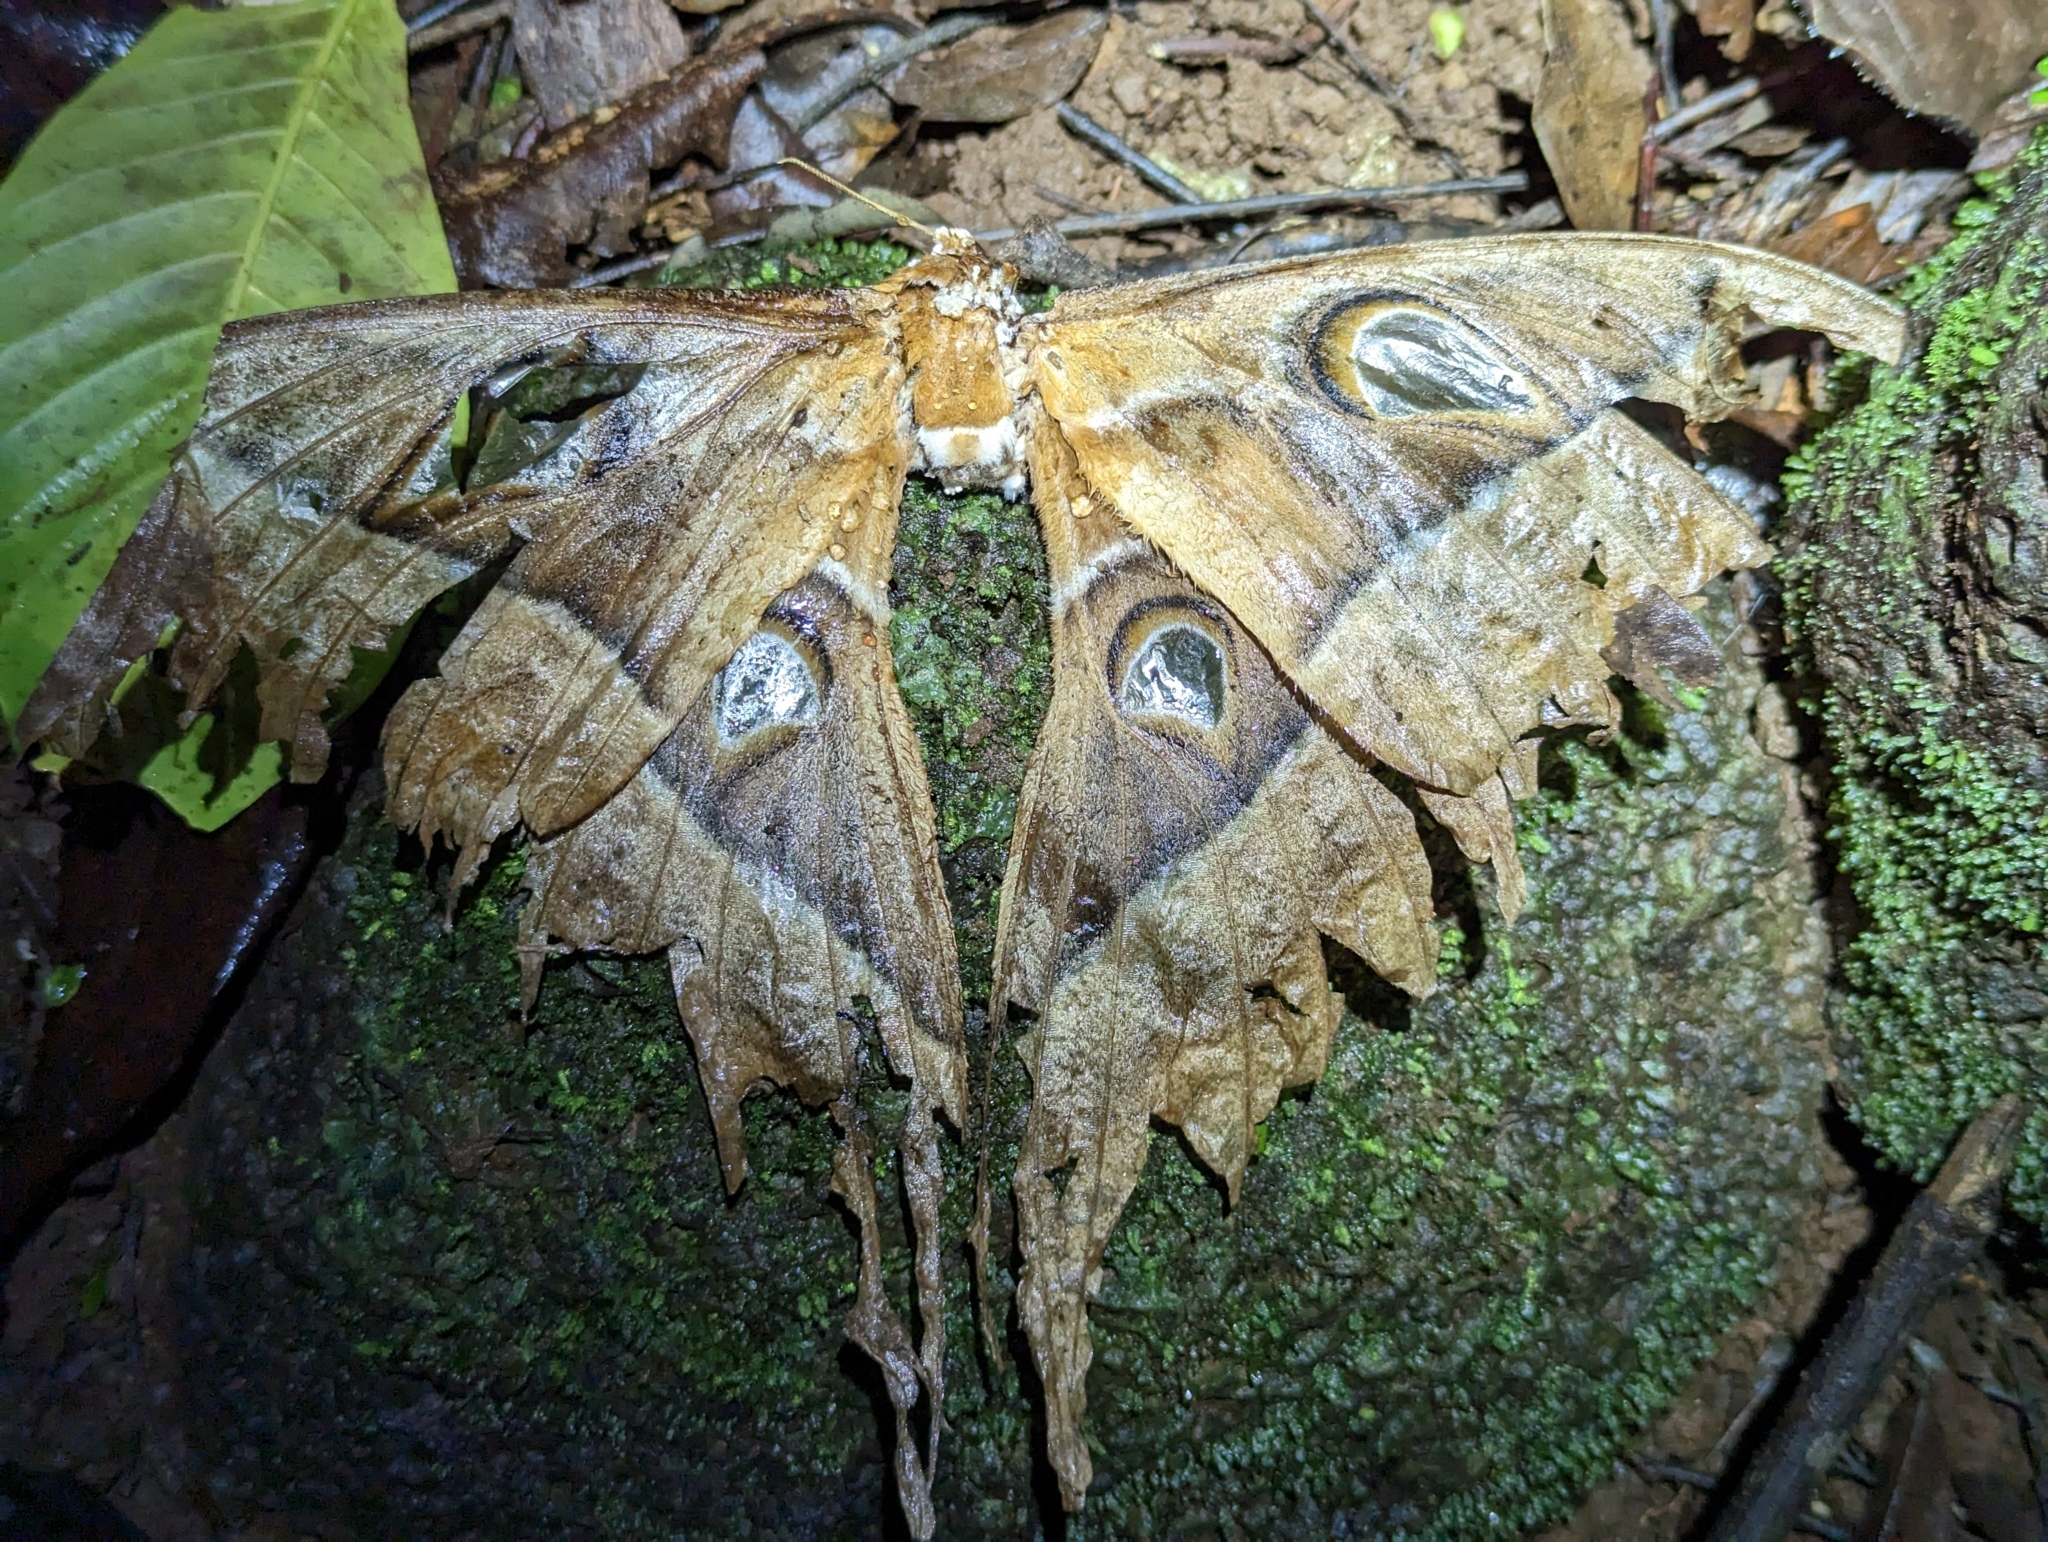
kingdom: Animalia
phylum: Arthropoda
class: Insecta
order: Lepidoptera
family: Saturniidae
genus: Coscinocera
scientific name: Coscinocera hercules
